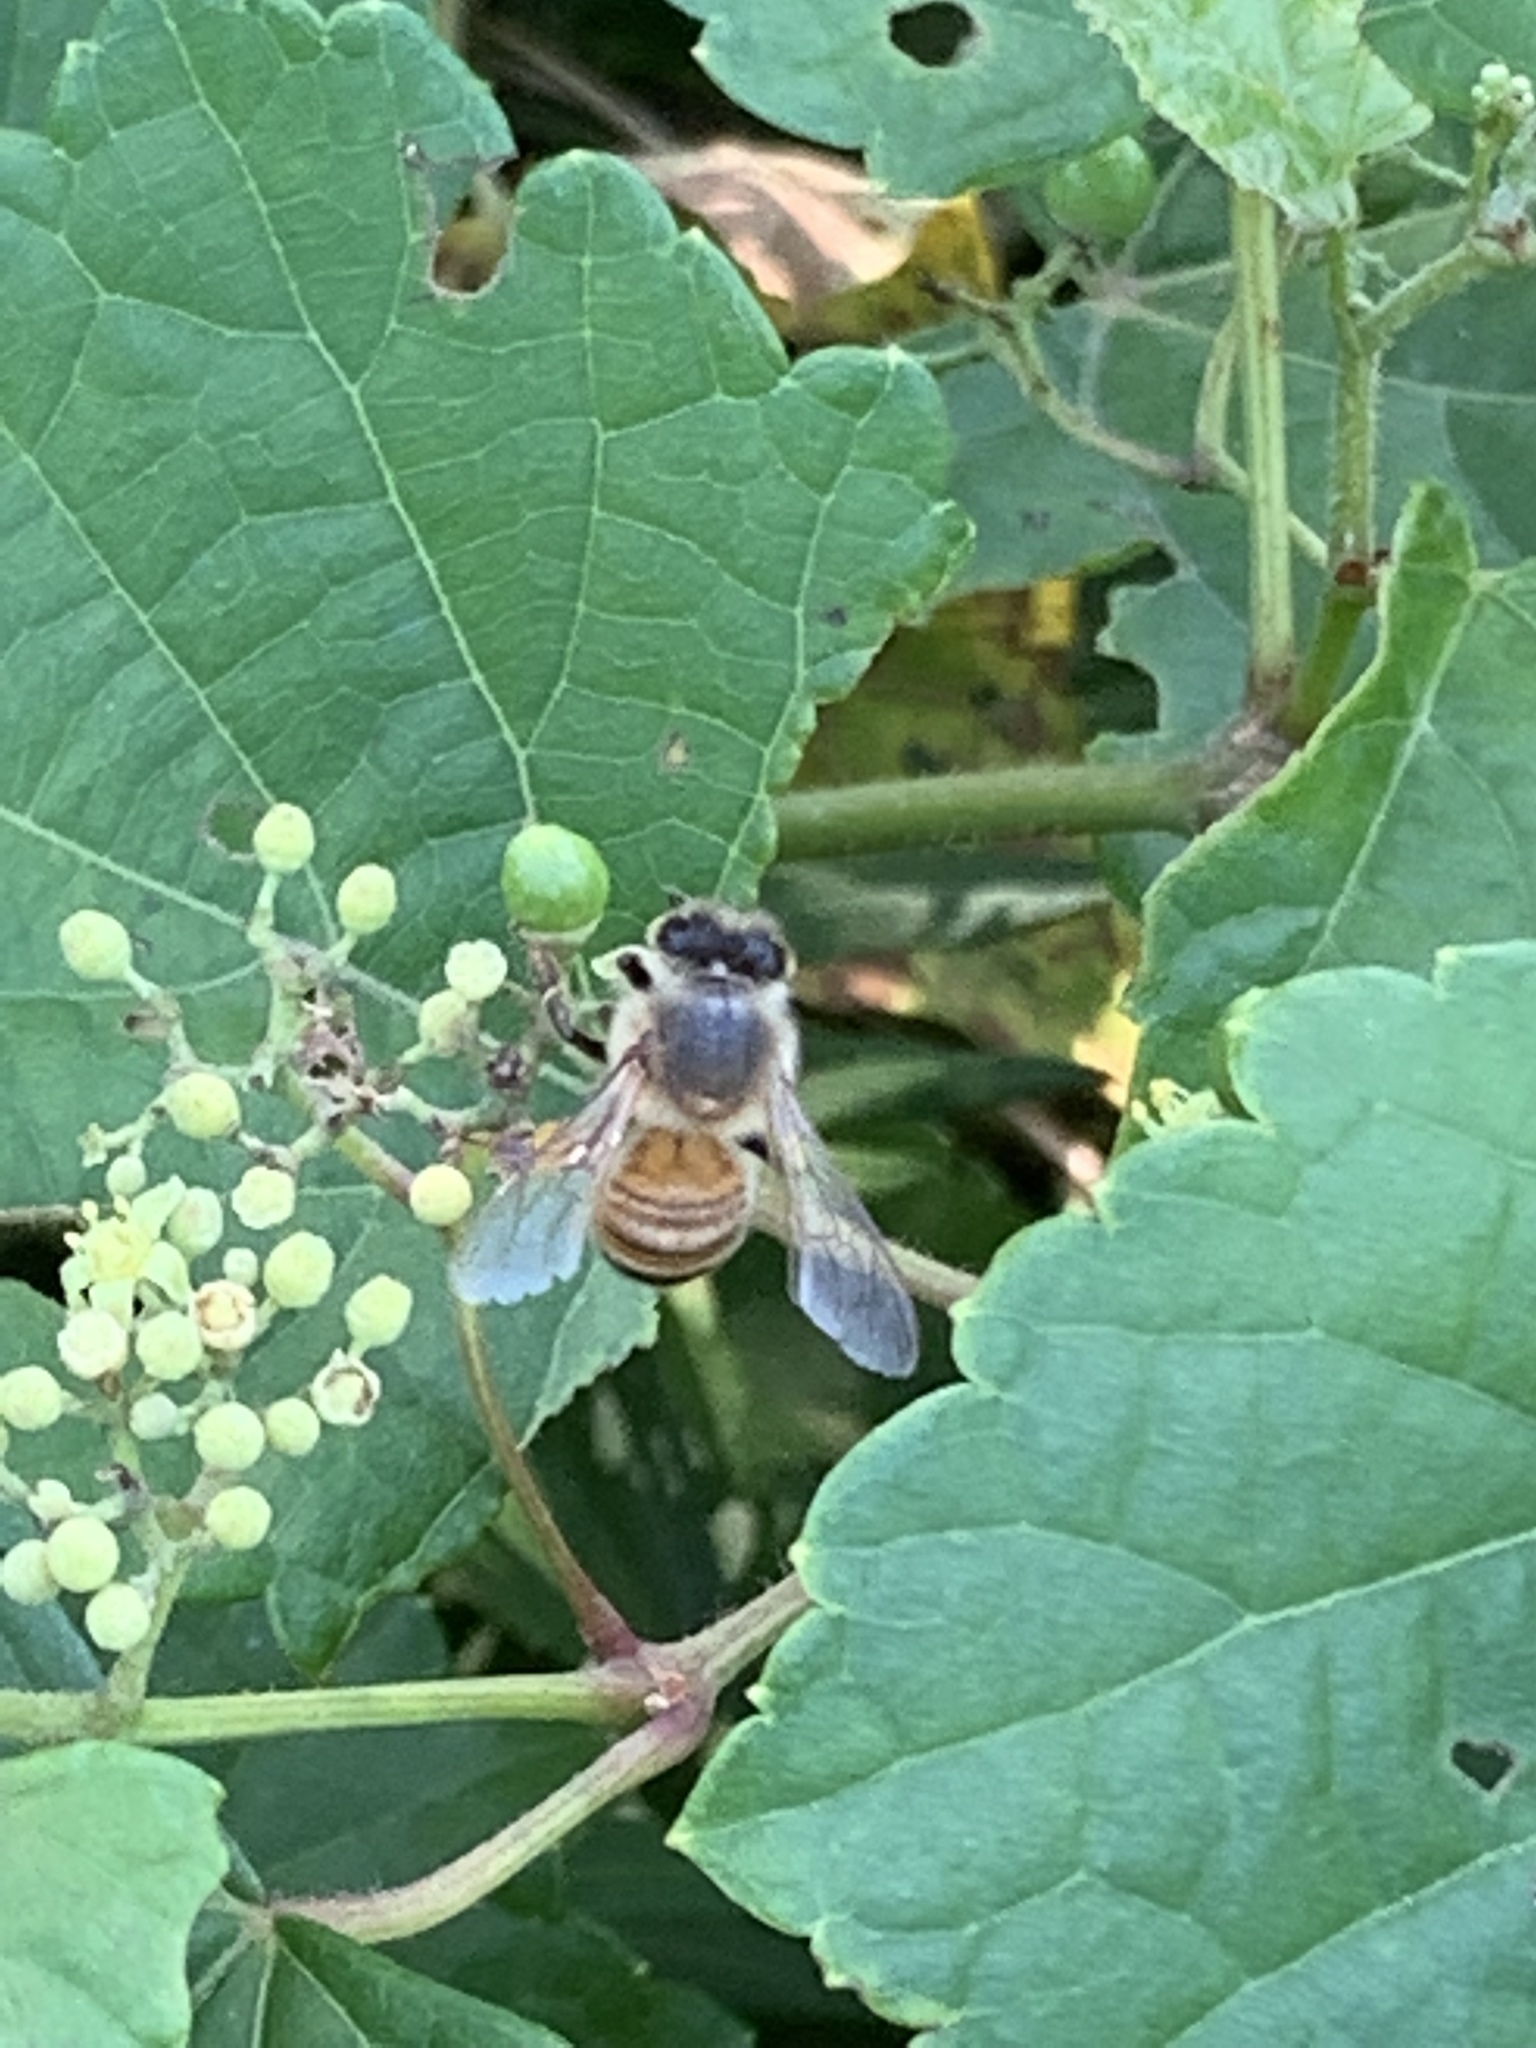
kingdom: Animalia
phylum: Arthropoda
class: Insecta
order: Hymenoptera
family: Apidae
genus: Apis
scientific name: Apis mellifera
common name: Honey bee
